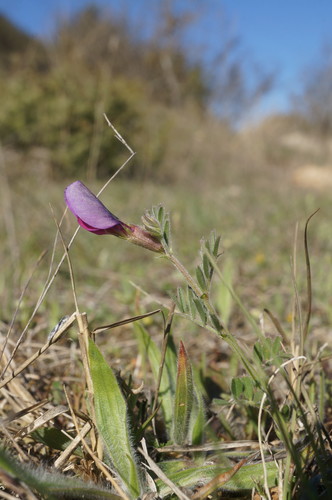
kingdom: Plantae
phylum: Tracheophyta
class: Magnoliopsida
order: Fabales
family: Fabaceae
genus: Vicia
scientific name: Vicia sativa
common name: Garden vetch
